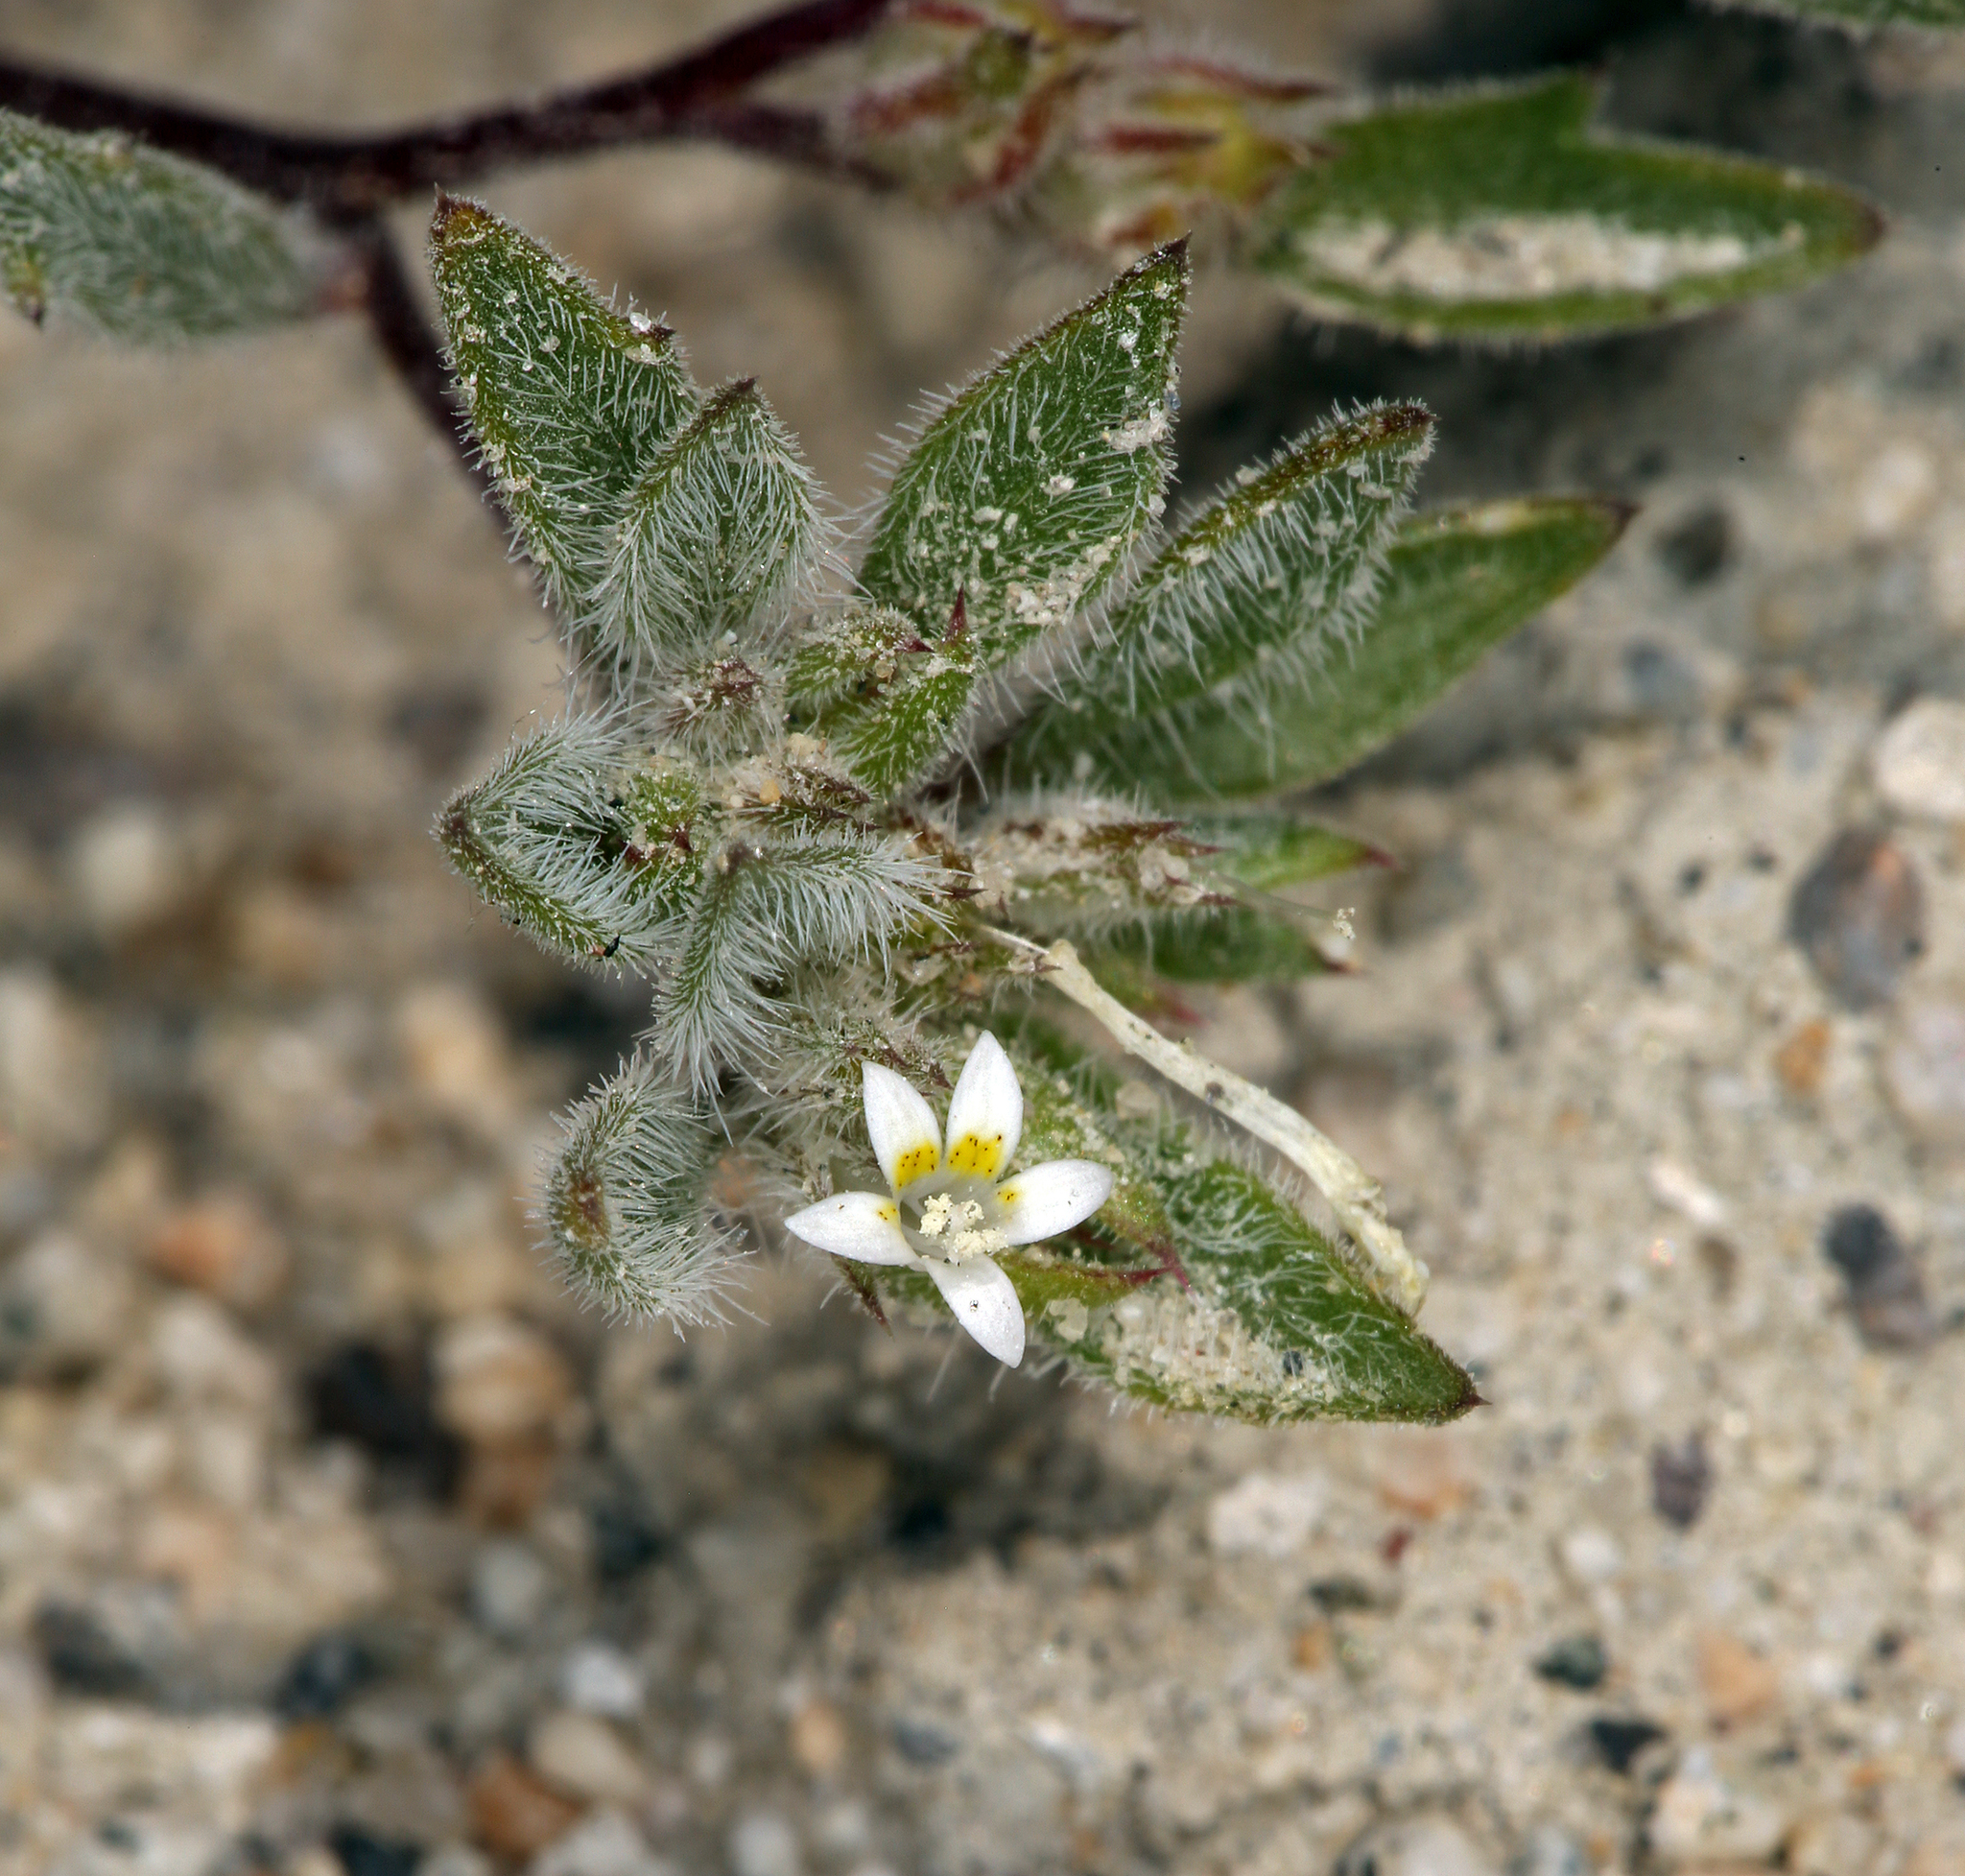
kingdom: Plantae
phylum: Tracheophyta
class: Magnoliopsida
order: Ericales
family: Polemoniaceae
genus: Loeseliastrum
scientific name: Loeseliastrum depressum
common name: Depressed ipomopsis
